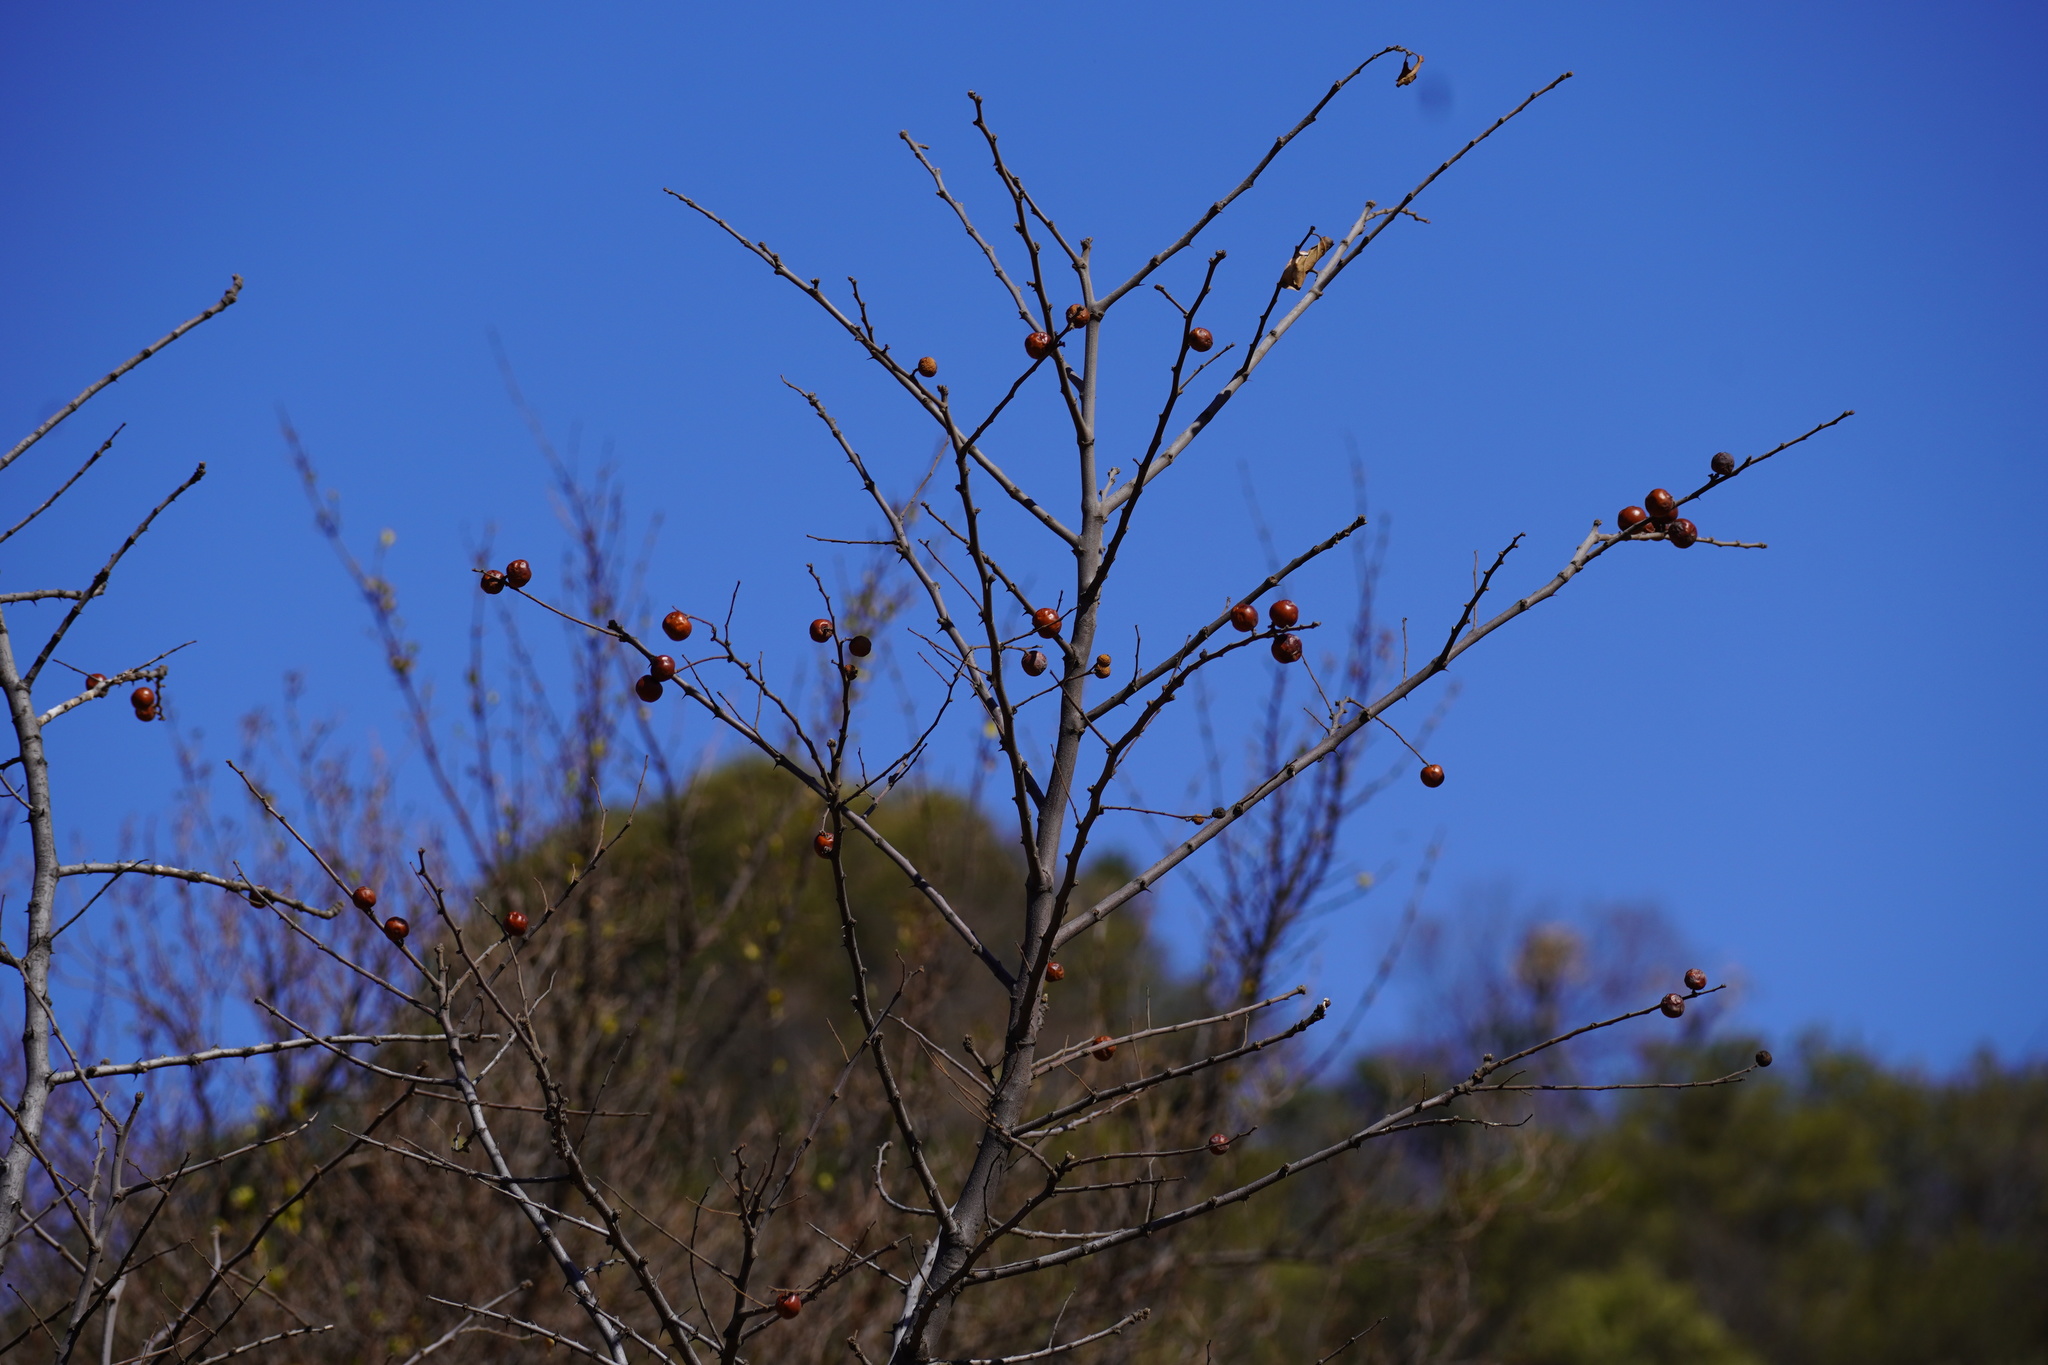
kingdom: Plantae
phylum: Tracheophyta
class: Magnoliopsida
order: Rosales
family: Rhamnaceae
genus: Ziziphus
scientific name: Ziziphus mucronata
